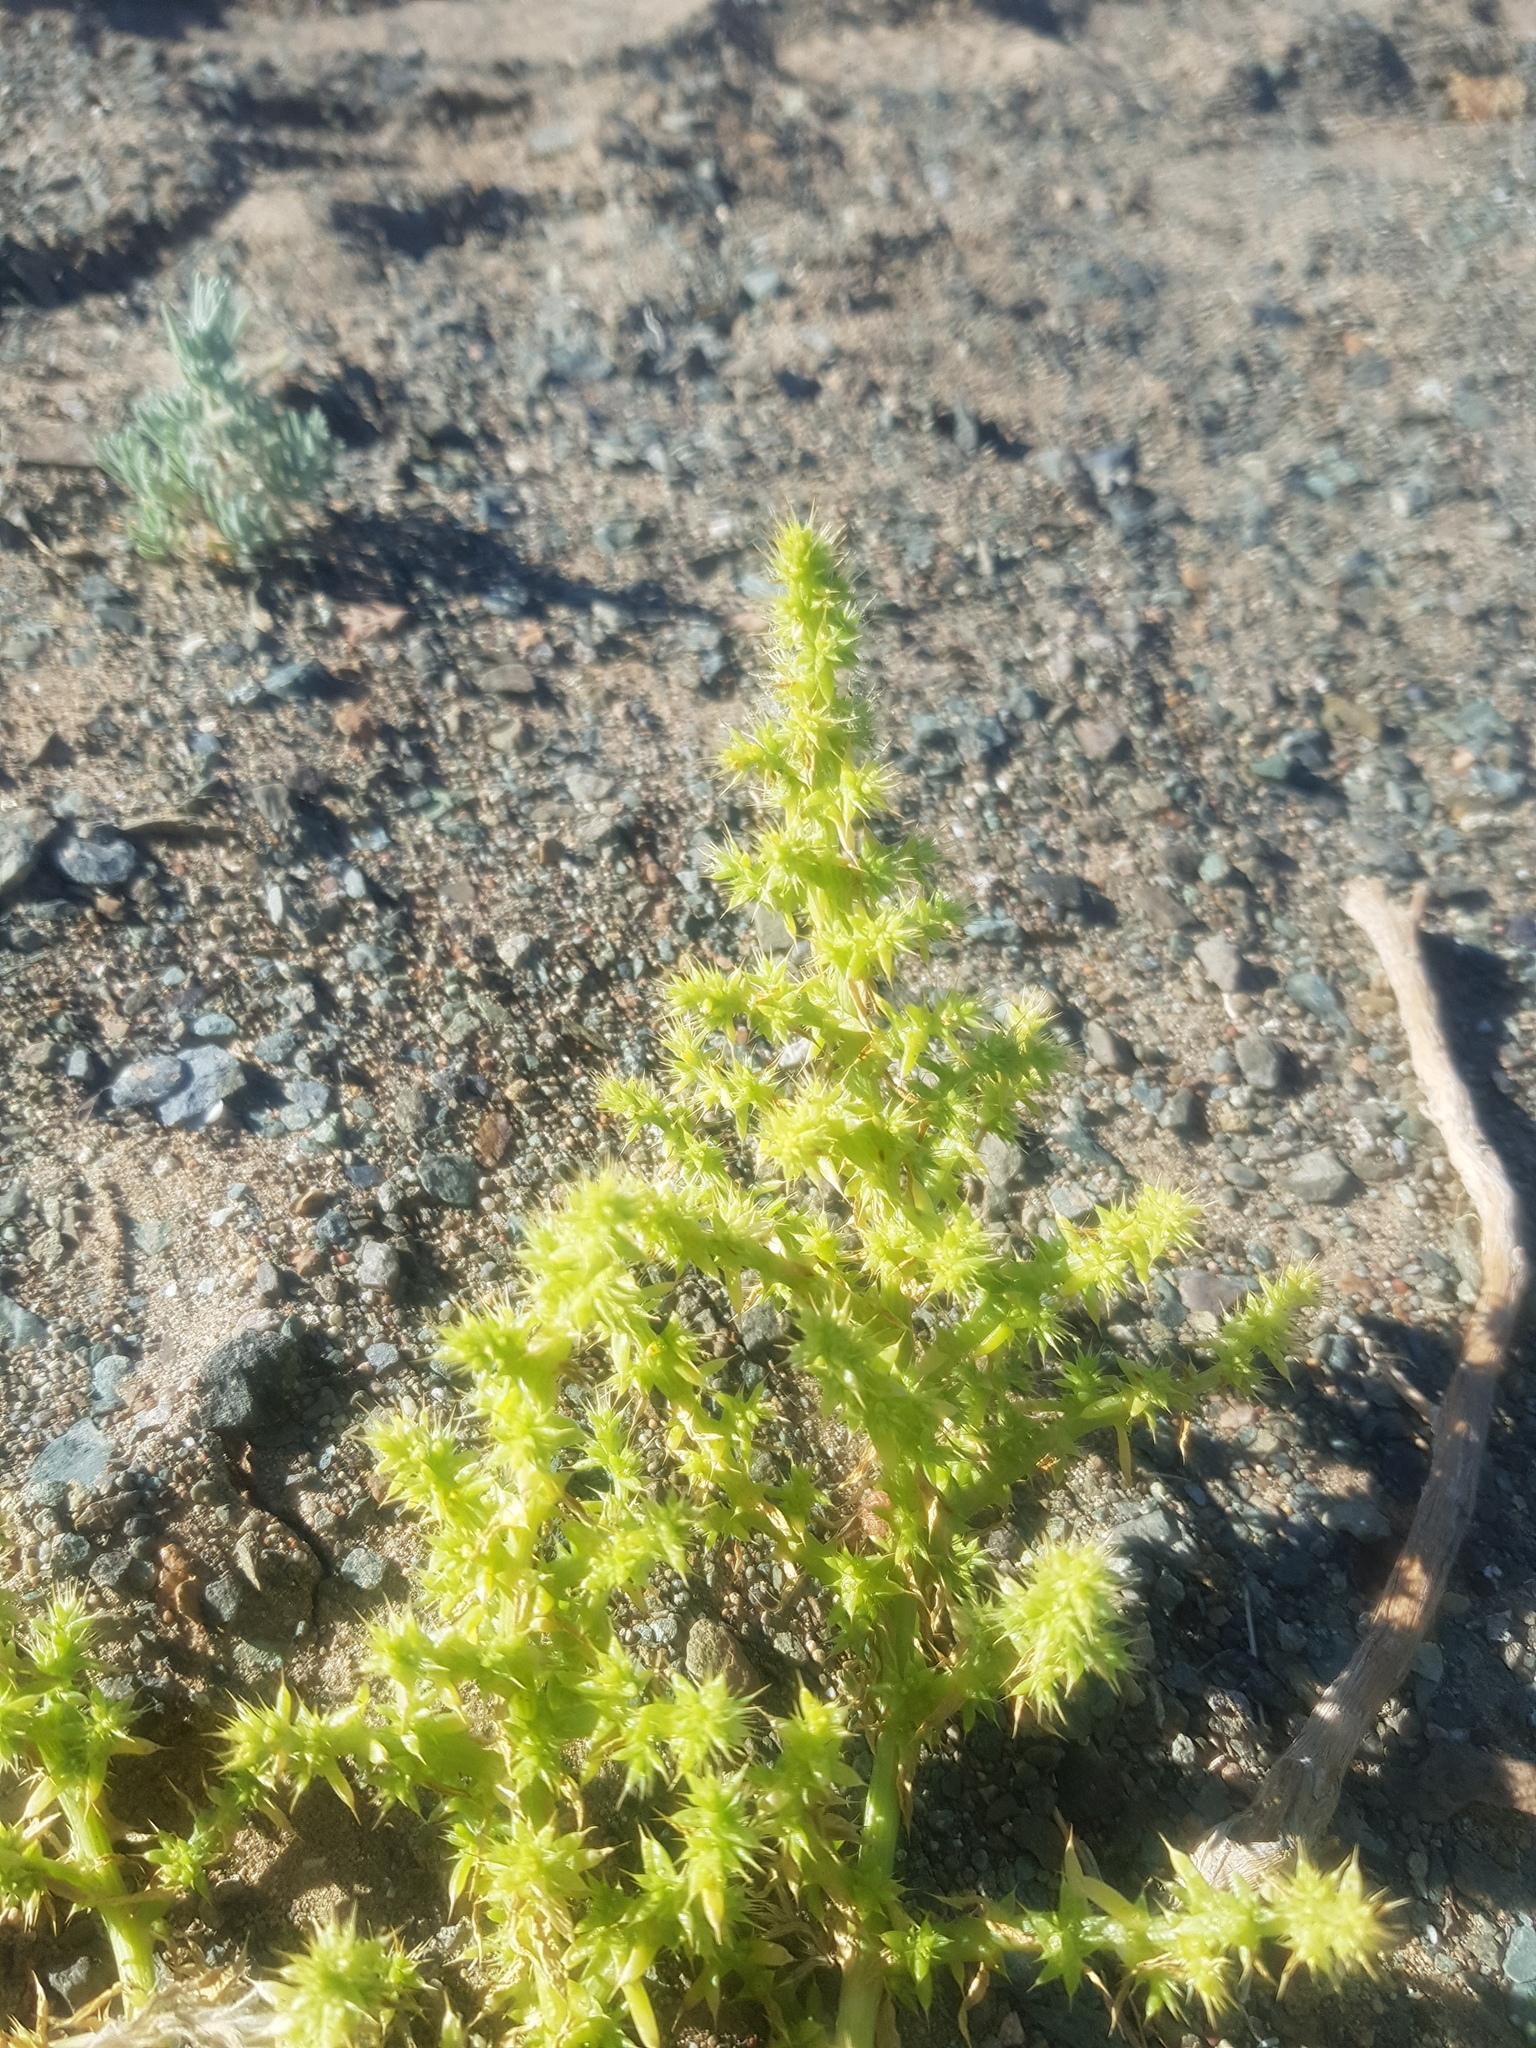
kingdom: Plantae
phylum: Tracheophyta
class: Magnoliopsida
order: Caryophyllales
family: Amaranthaceae
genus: Salsola
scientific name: Salsola tragus
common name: Prickly russian thistle
